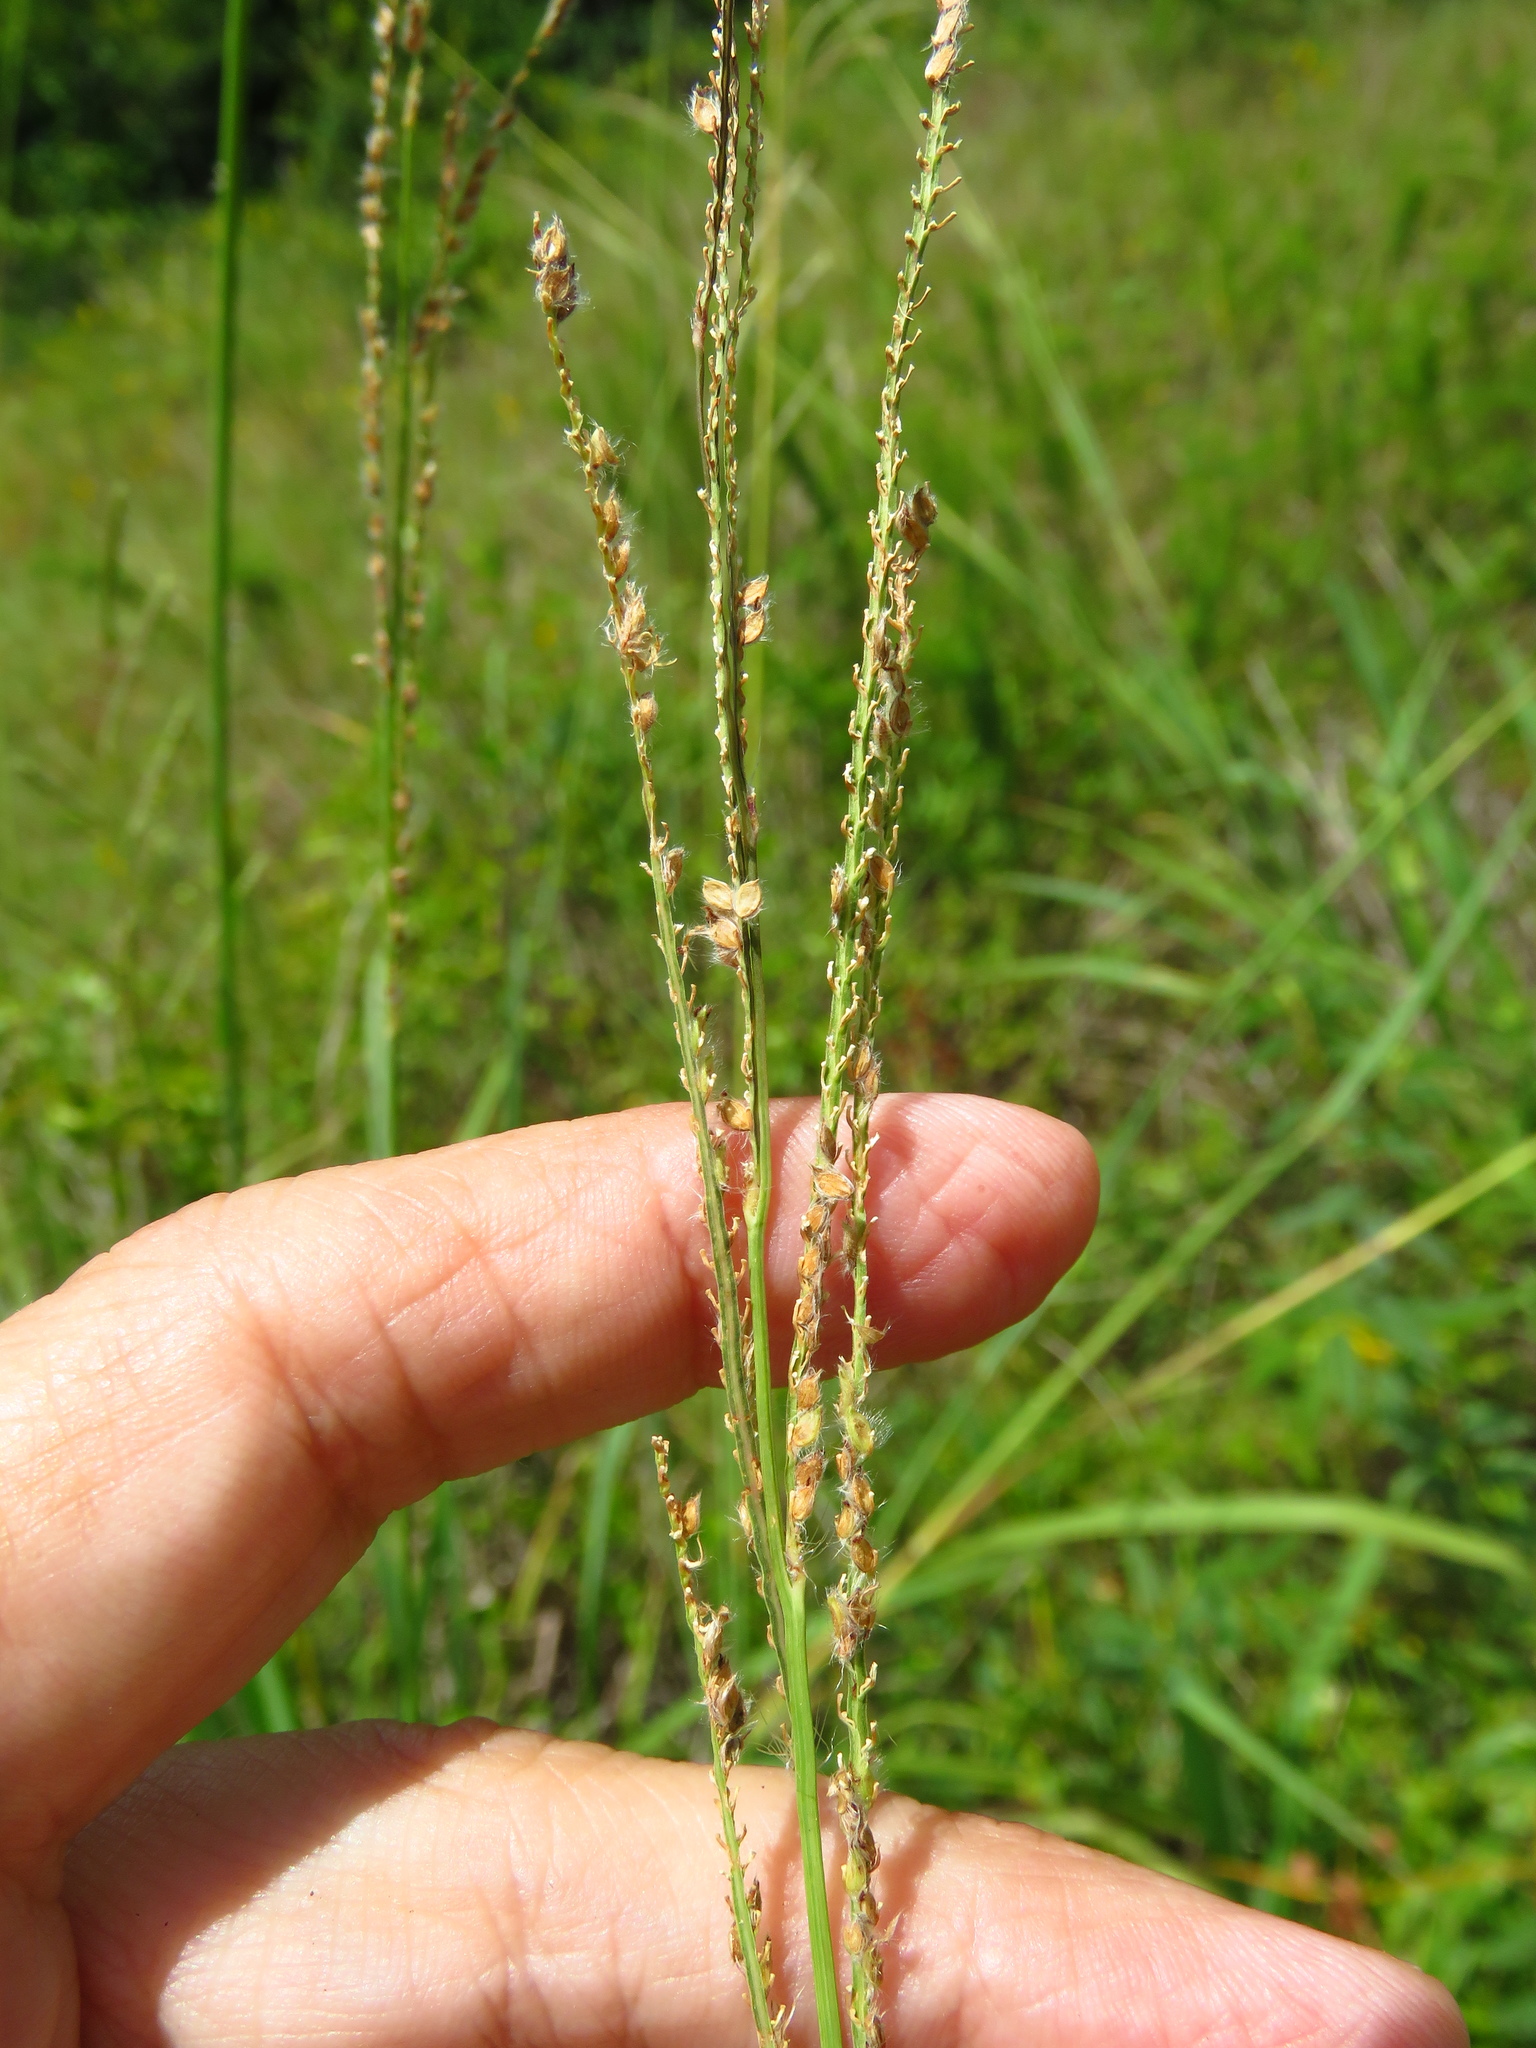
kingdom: Plantae
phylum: Tracheophyta
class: Liliopsida
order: Poales
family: Poaceae
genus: Paspalum
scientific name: Paspalum urvillei
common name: Vasey's grass
